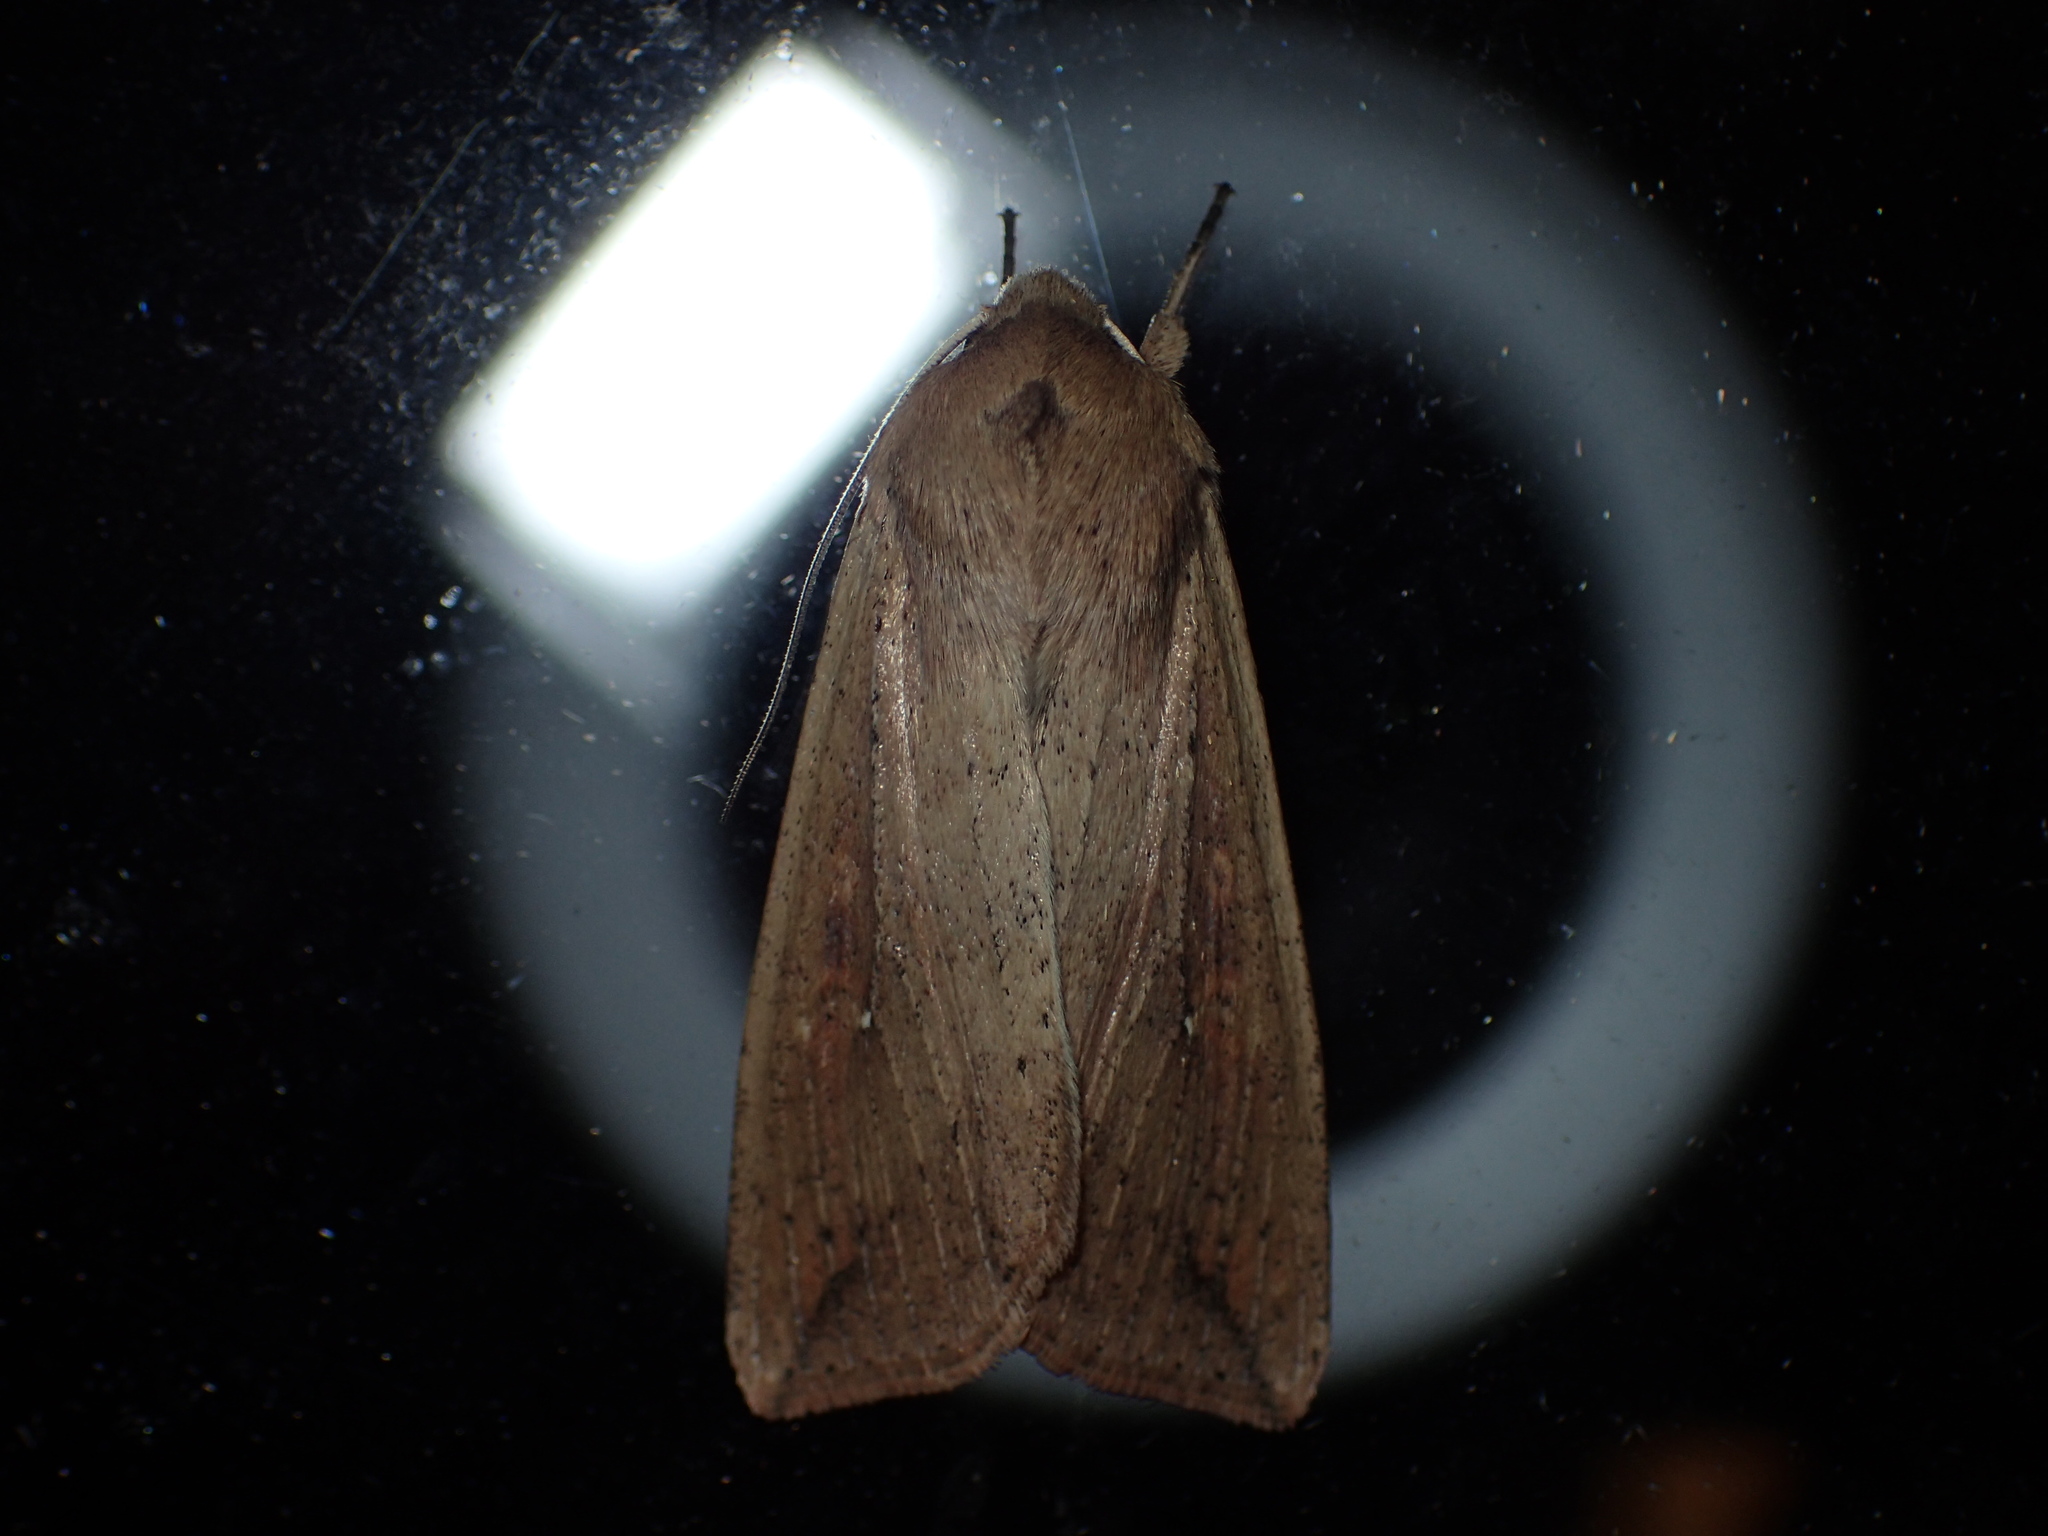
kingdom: Animalia
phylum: Arthropoda
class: Insecta
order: Lepidoptera
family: Noctuidae
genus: Mythimna
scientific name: Mythimna unipuncta
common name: White-speck
